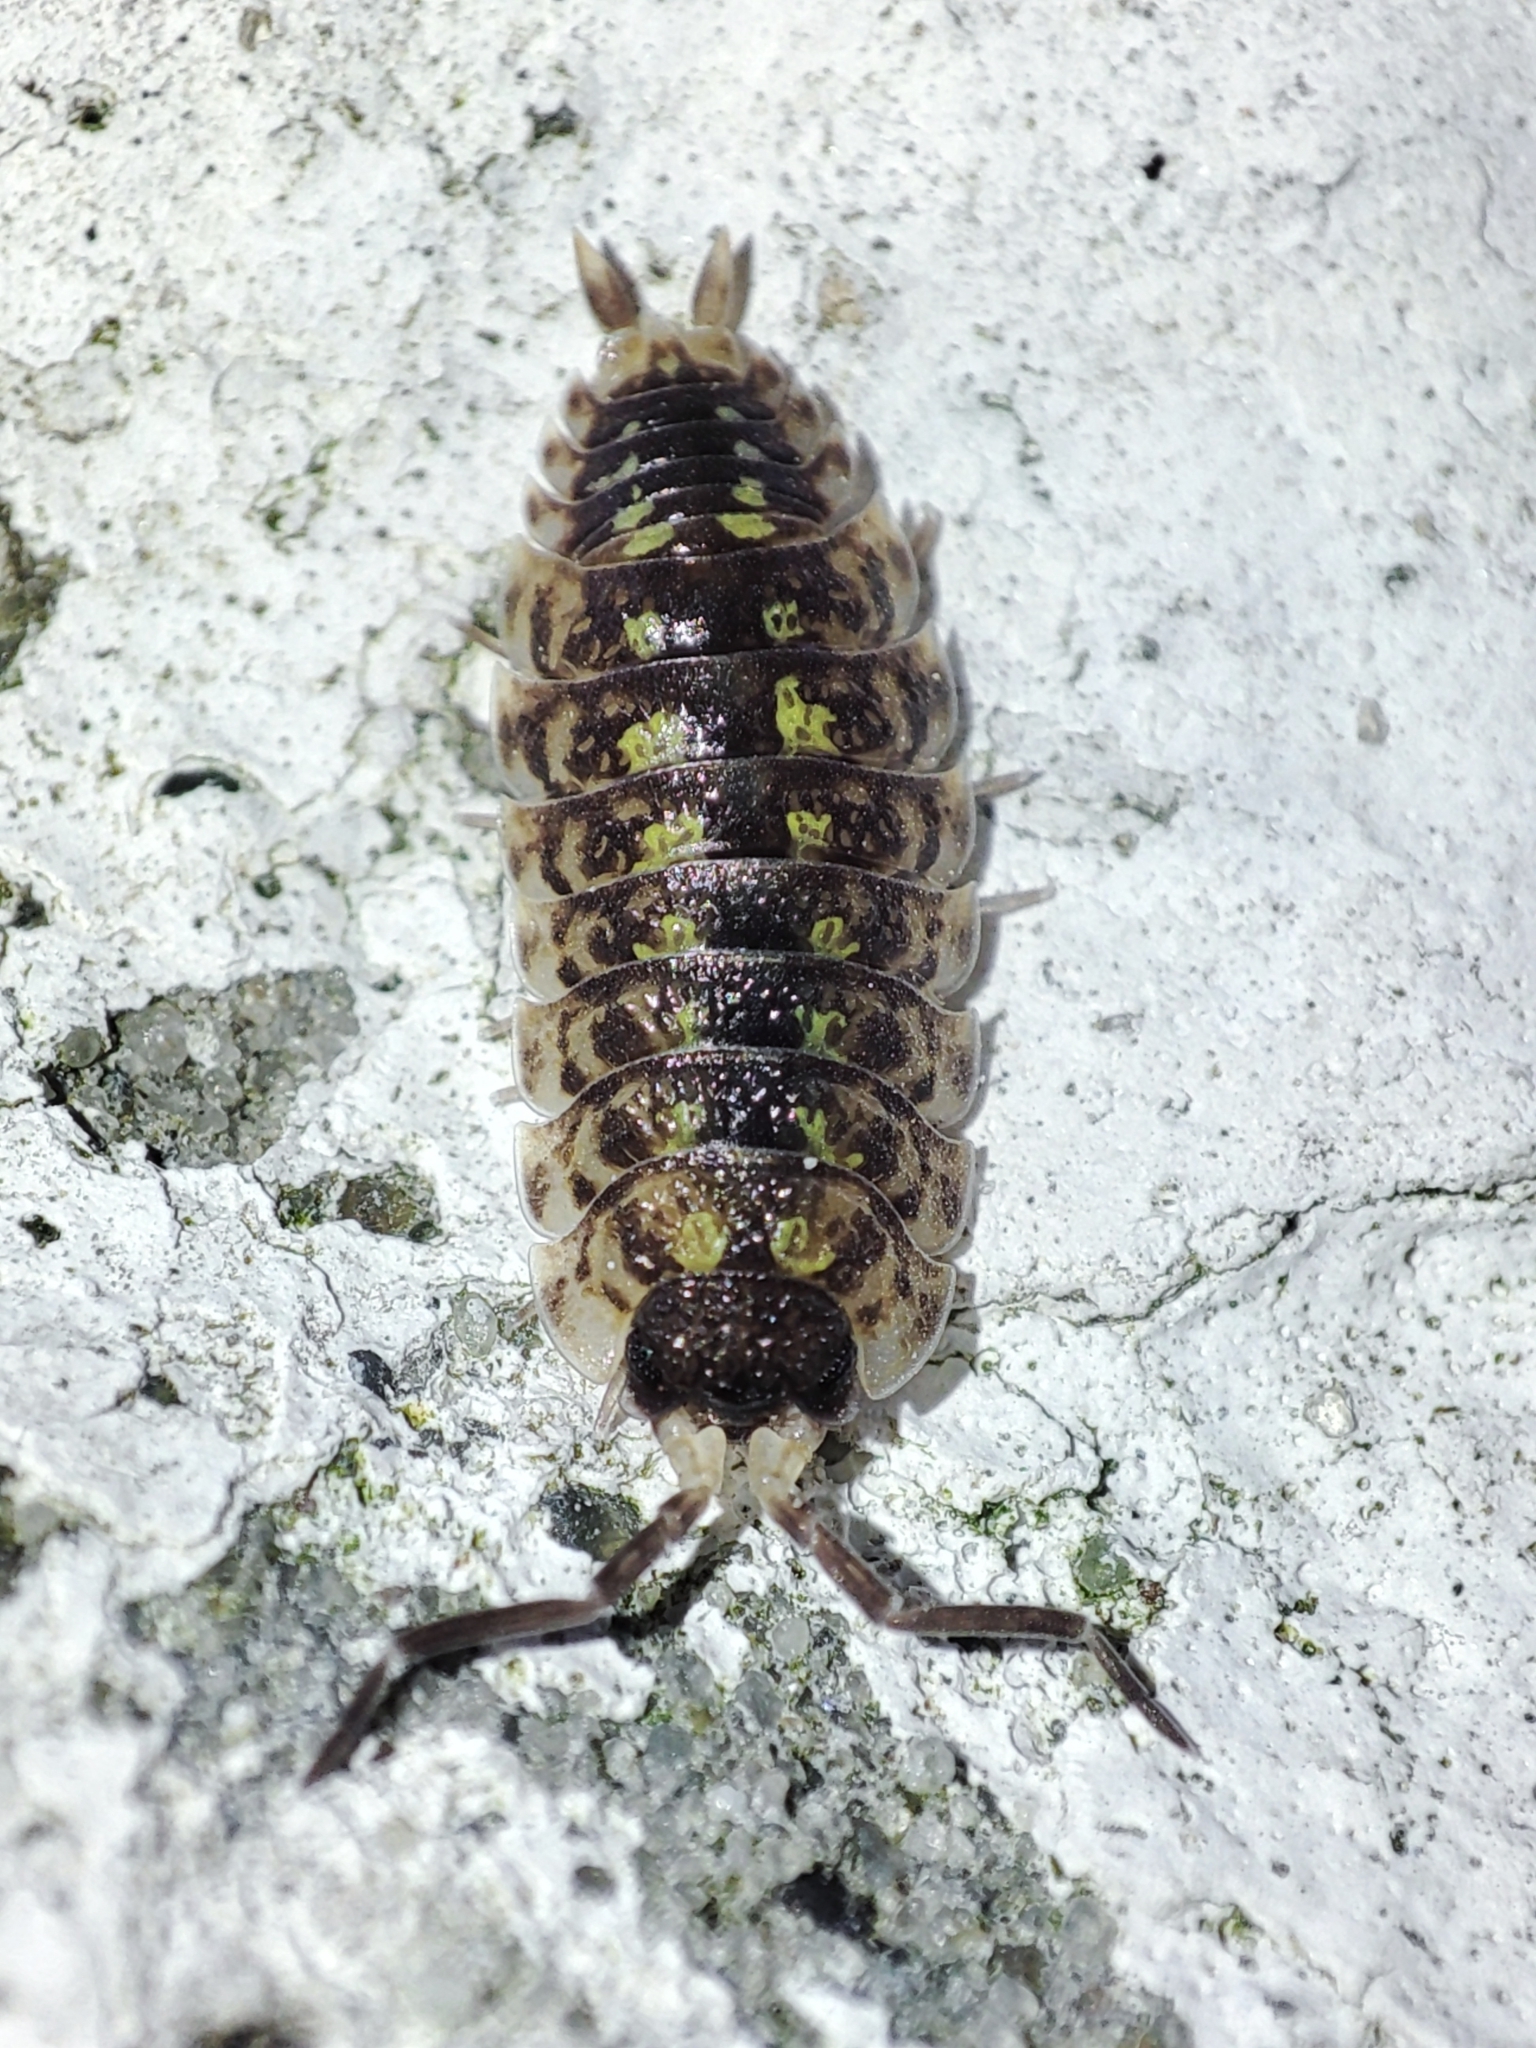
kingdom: Animalia
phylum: Arthropoda
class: Malacostraca
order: Isopoda
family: Porcellionidae
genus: Porcellio
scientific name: Porcellio spinicornis
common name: Painted woodlouse
